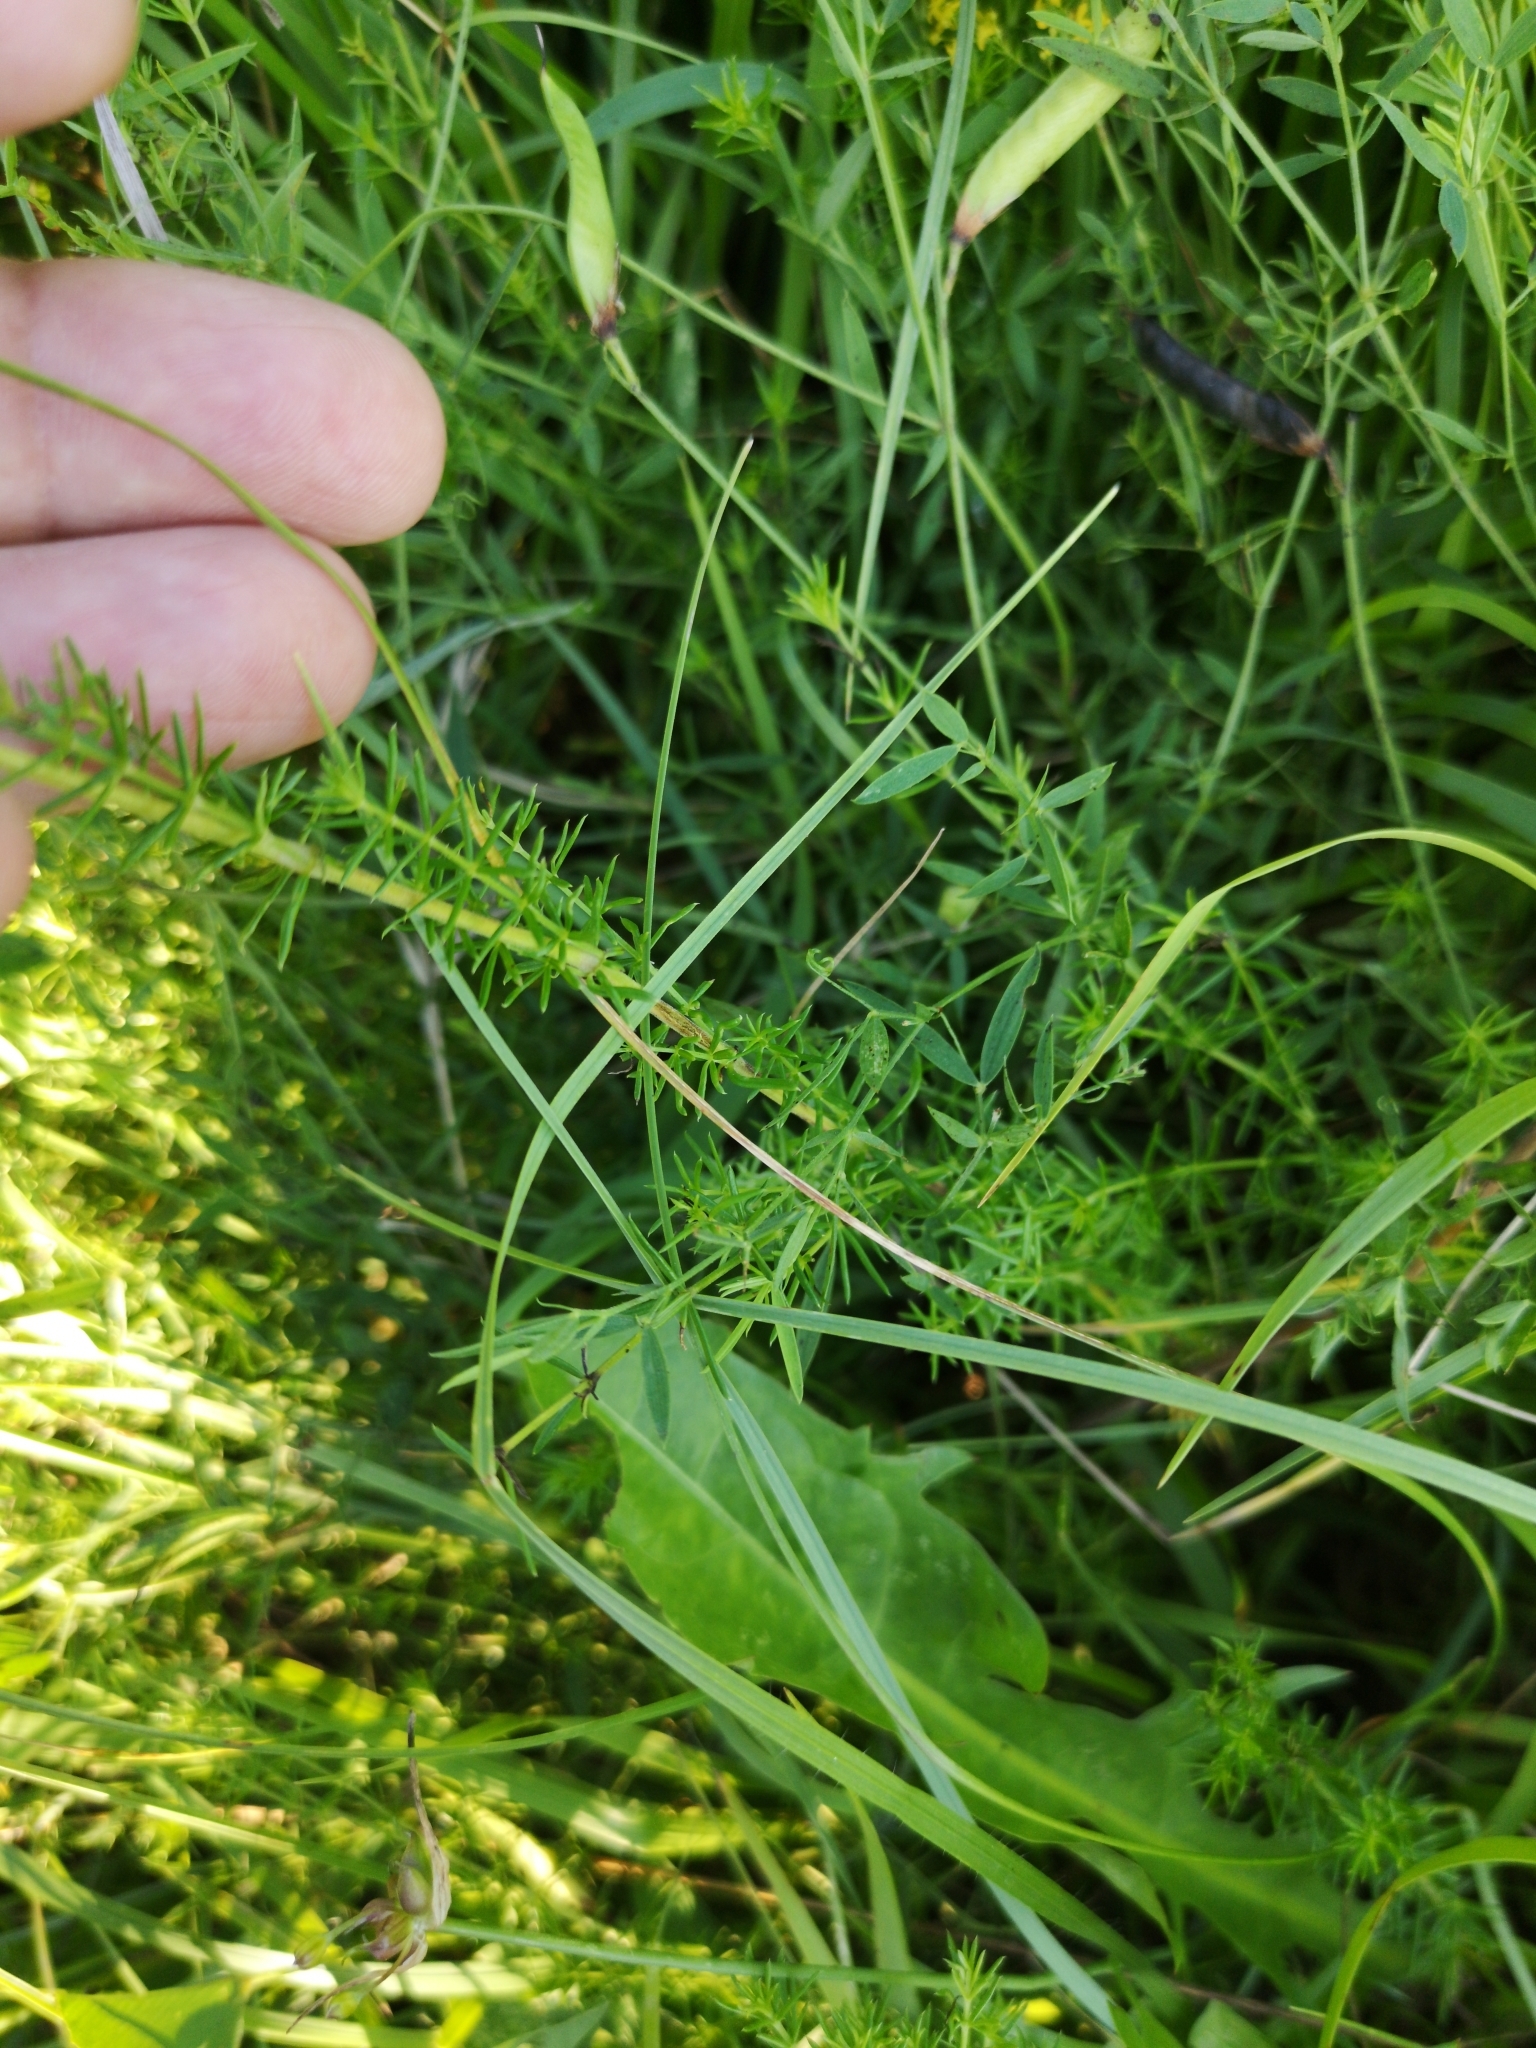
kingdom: Plantae
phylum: Tracheophyta
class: Magnoliopsida
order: Gentianales
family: Rubiaceae
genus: Galium
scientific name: Galium verum
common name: Lady's bedstraw
